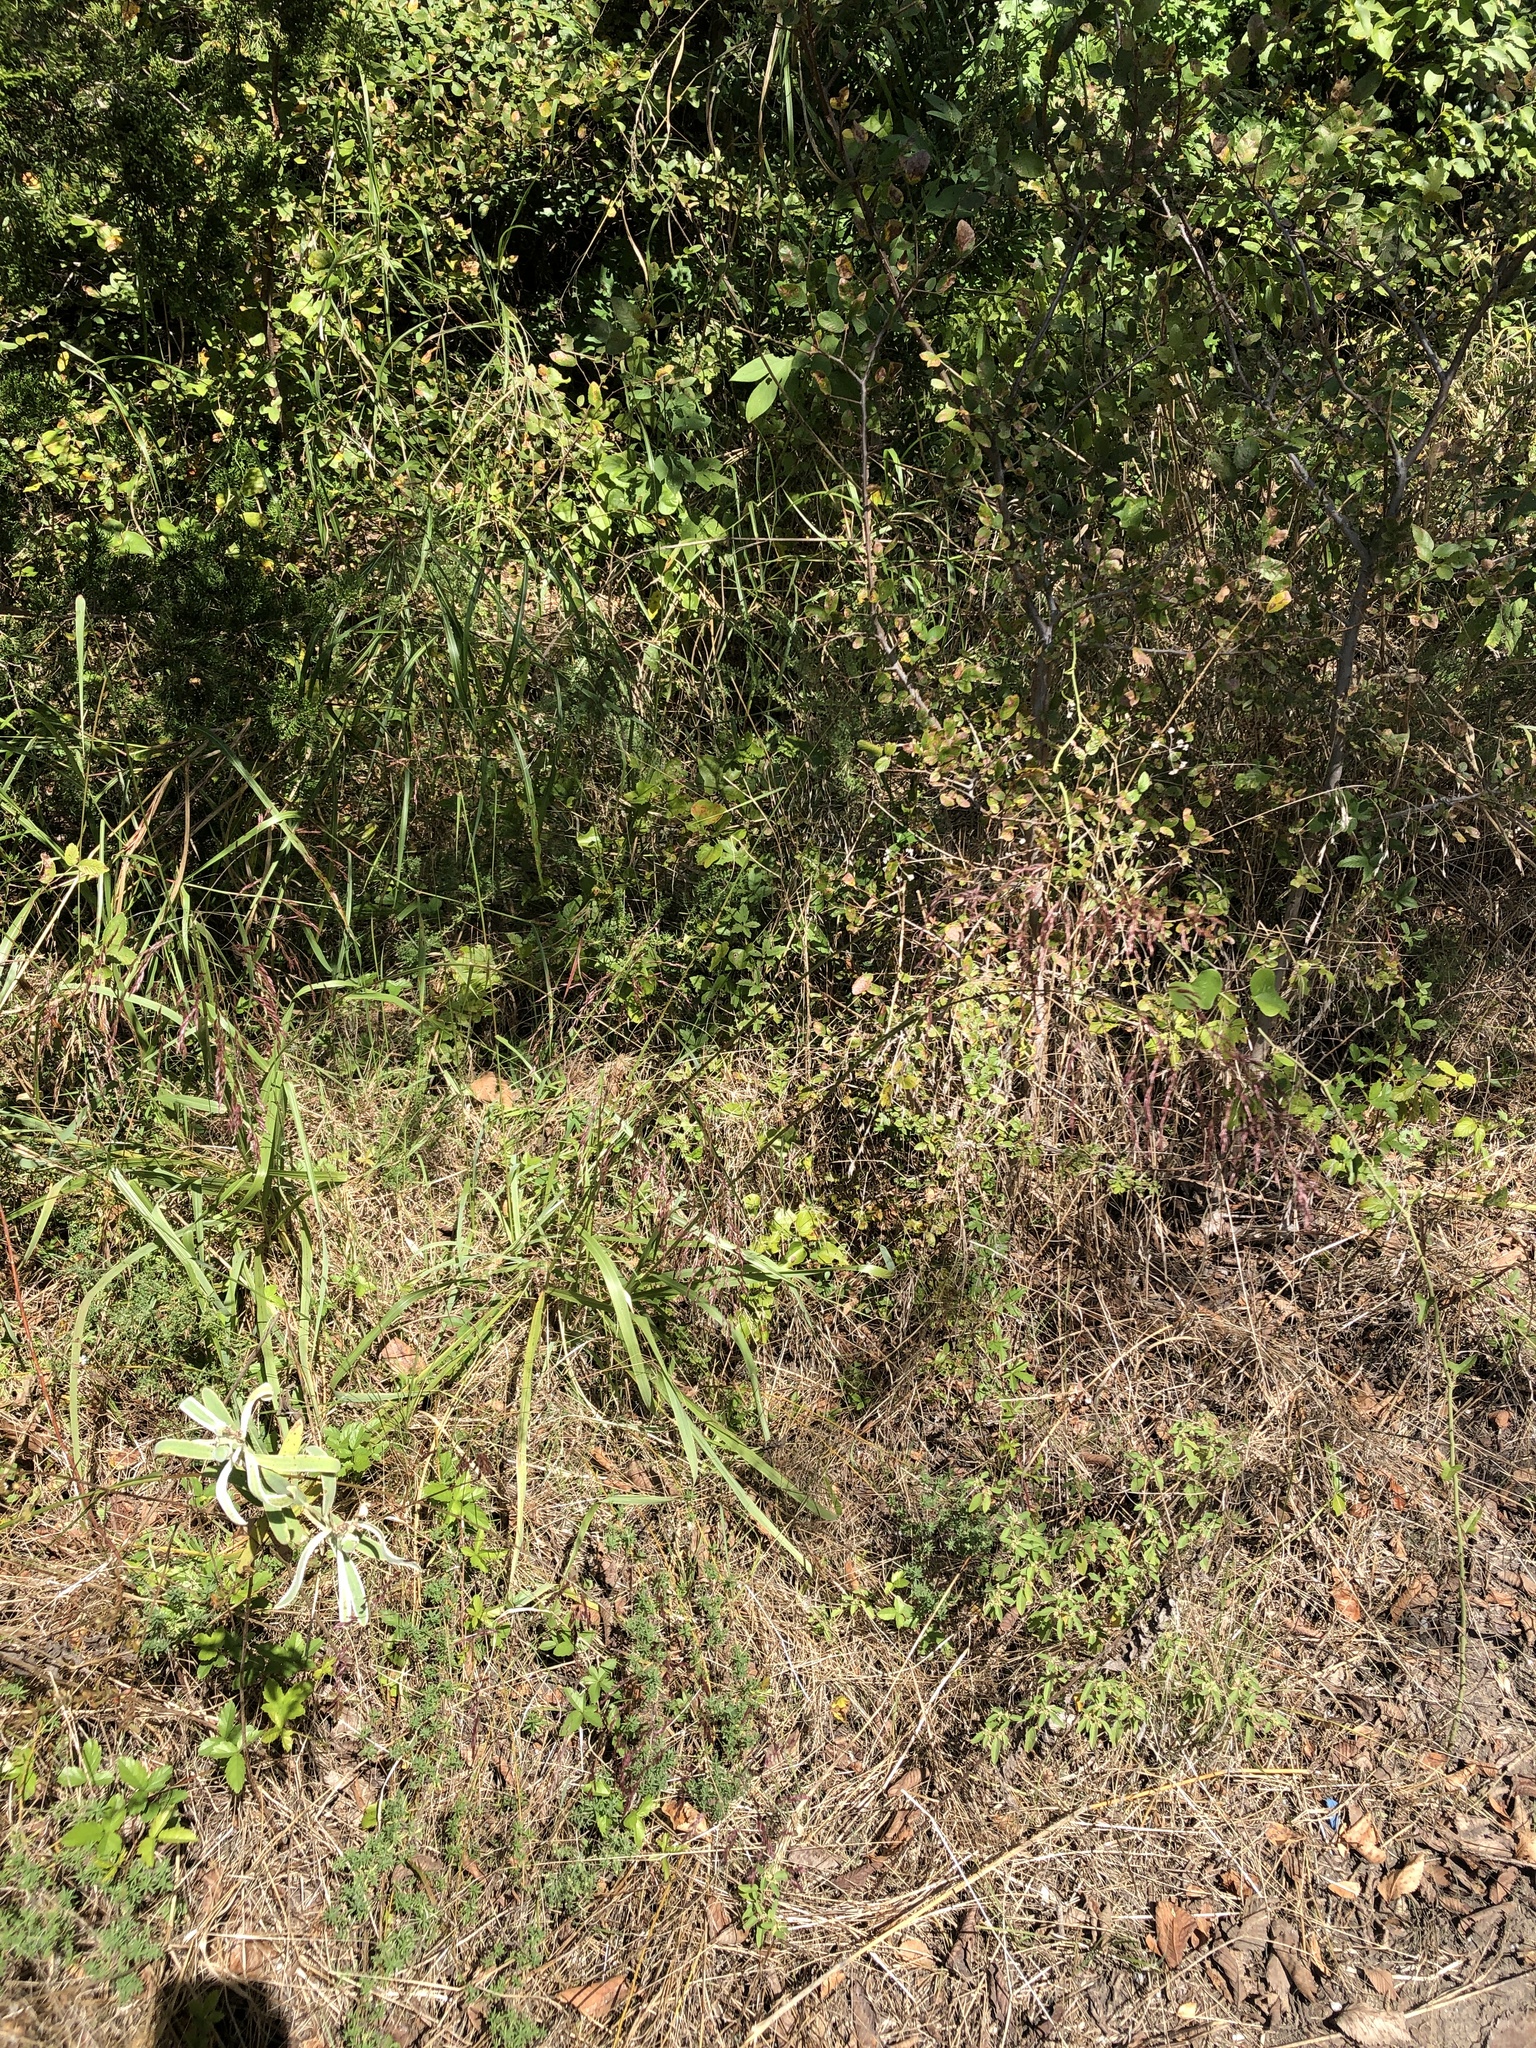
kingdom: Plantae
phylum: Tracheophyta
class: Liliopsida
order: Poales
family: Poaceae
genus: Tridens
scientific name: Tridens flavus
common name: Purpletop
